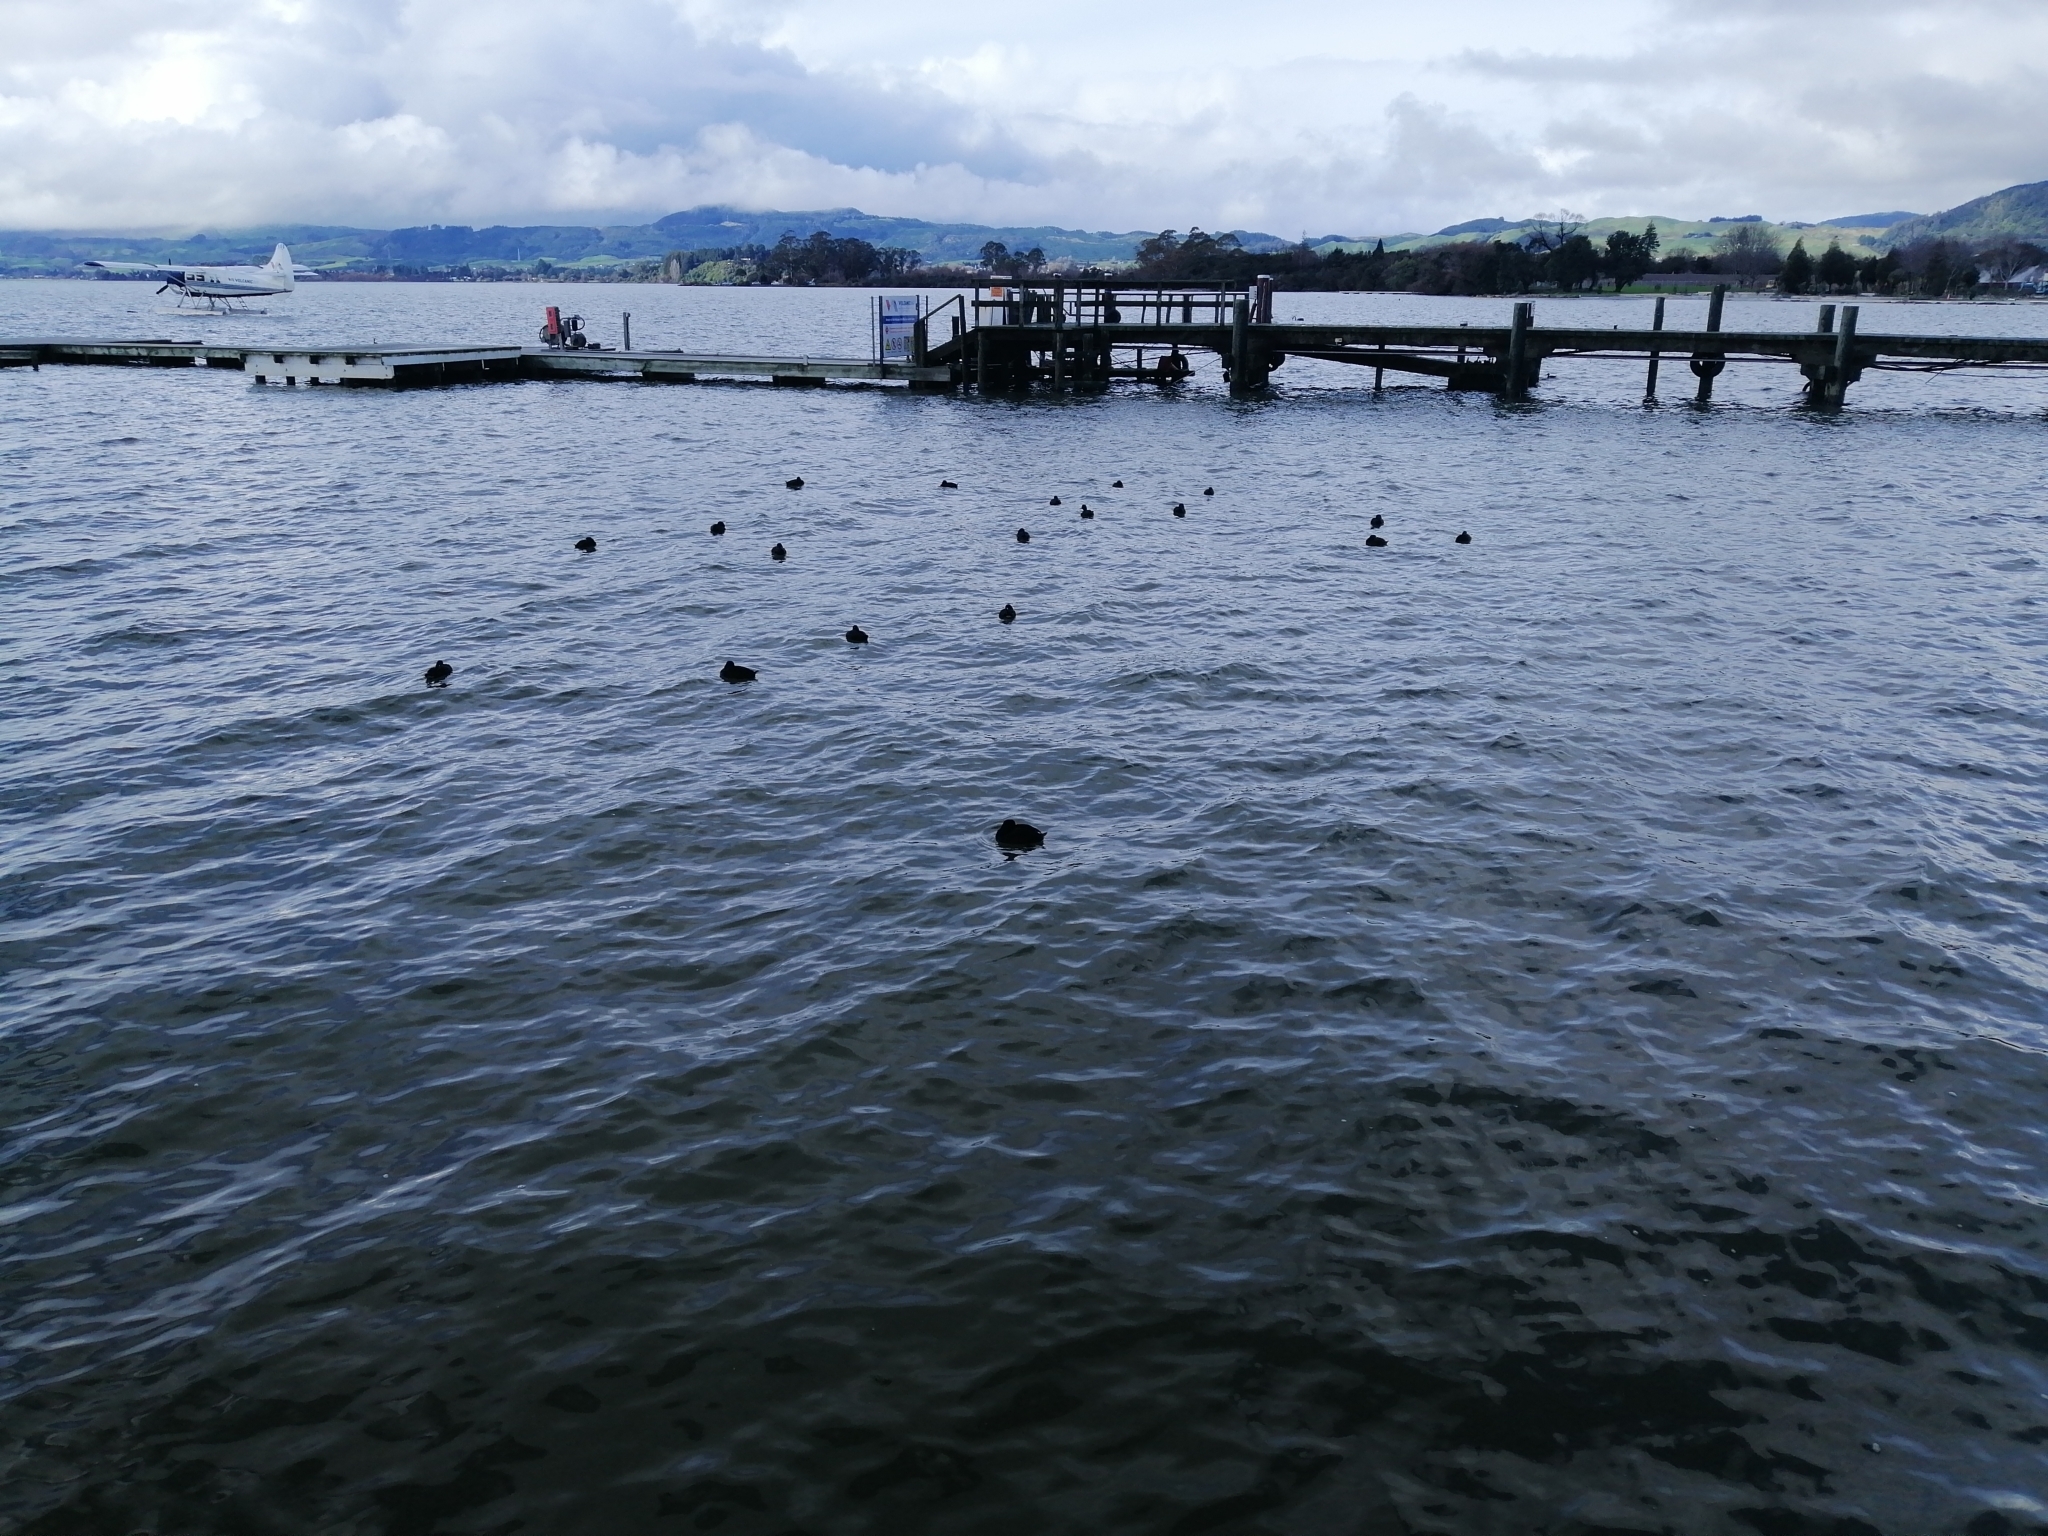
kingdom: Animalia
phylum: Chordata
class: Aves
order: Anseriformes
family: Anatidae
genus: Aythya
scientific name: Aythya novaeseelandiae
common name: New zealand scaup
